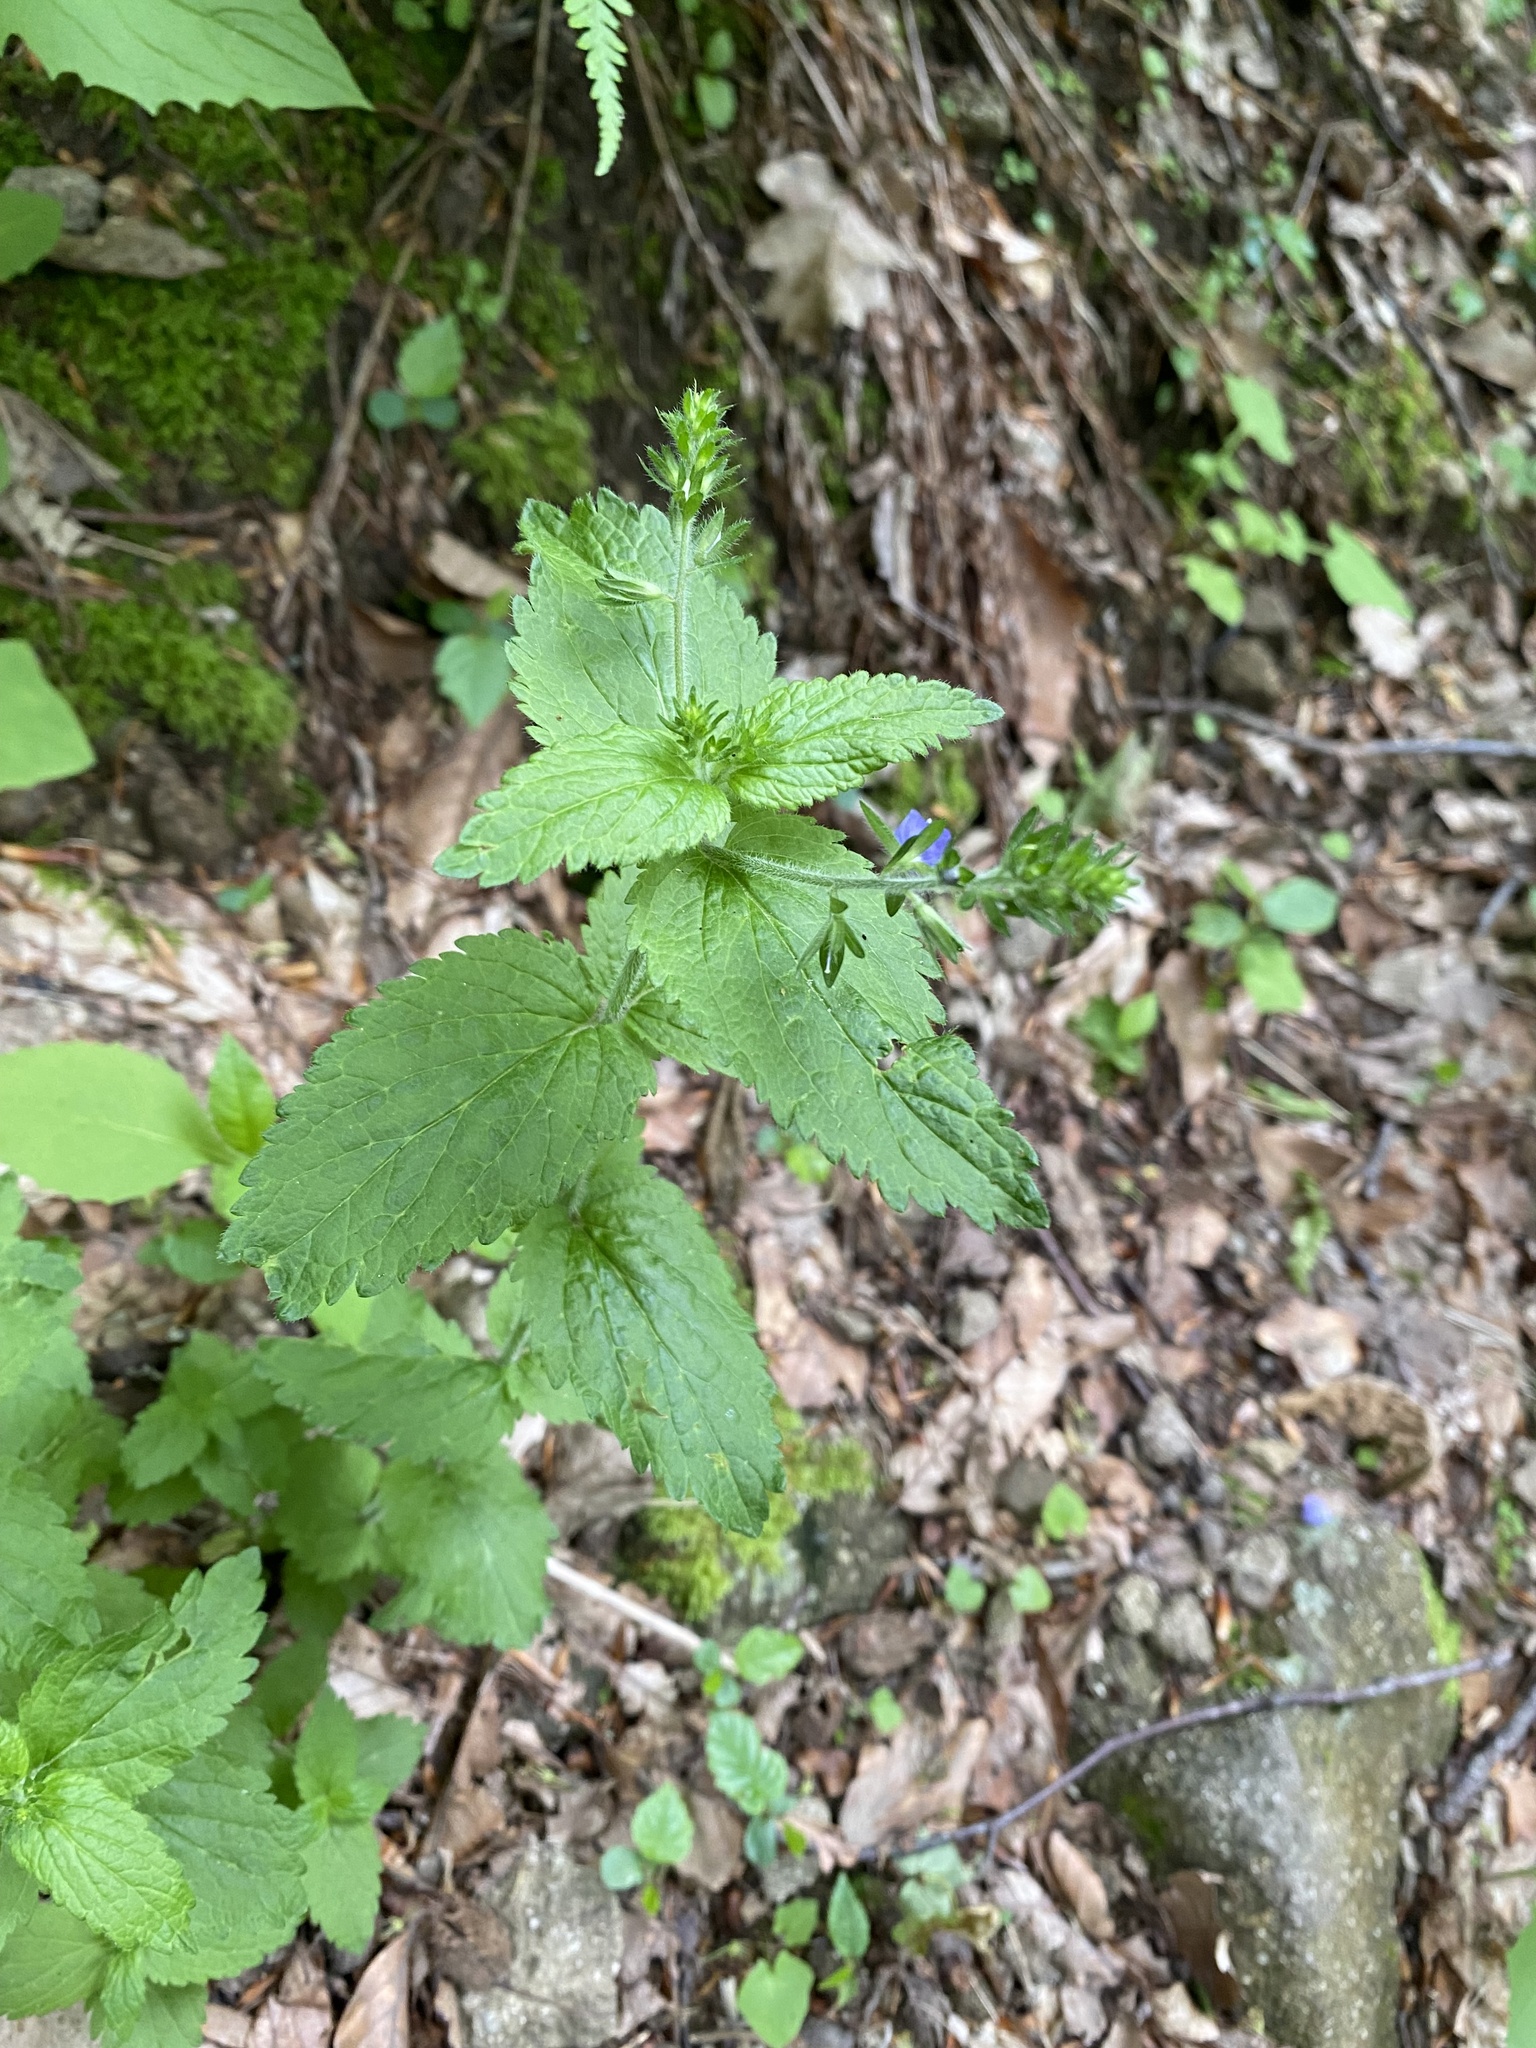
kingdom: Plantae
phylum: Tracheophyta
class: Magnoliopsida
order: Lamiales
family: Plantaginaceae
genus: Veronica
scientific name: Veronica magna
